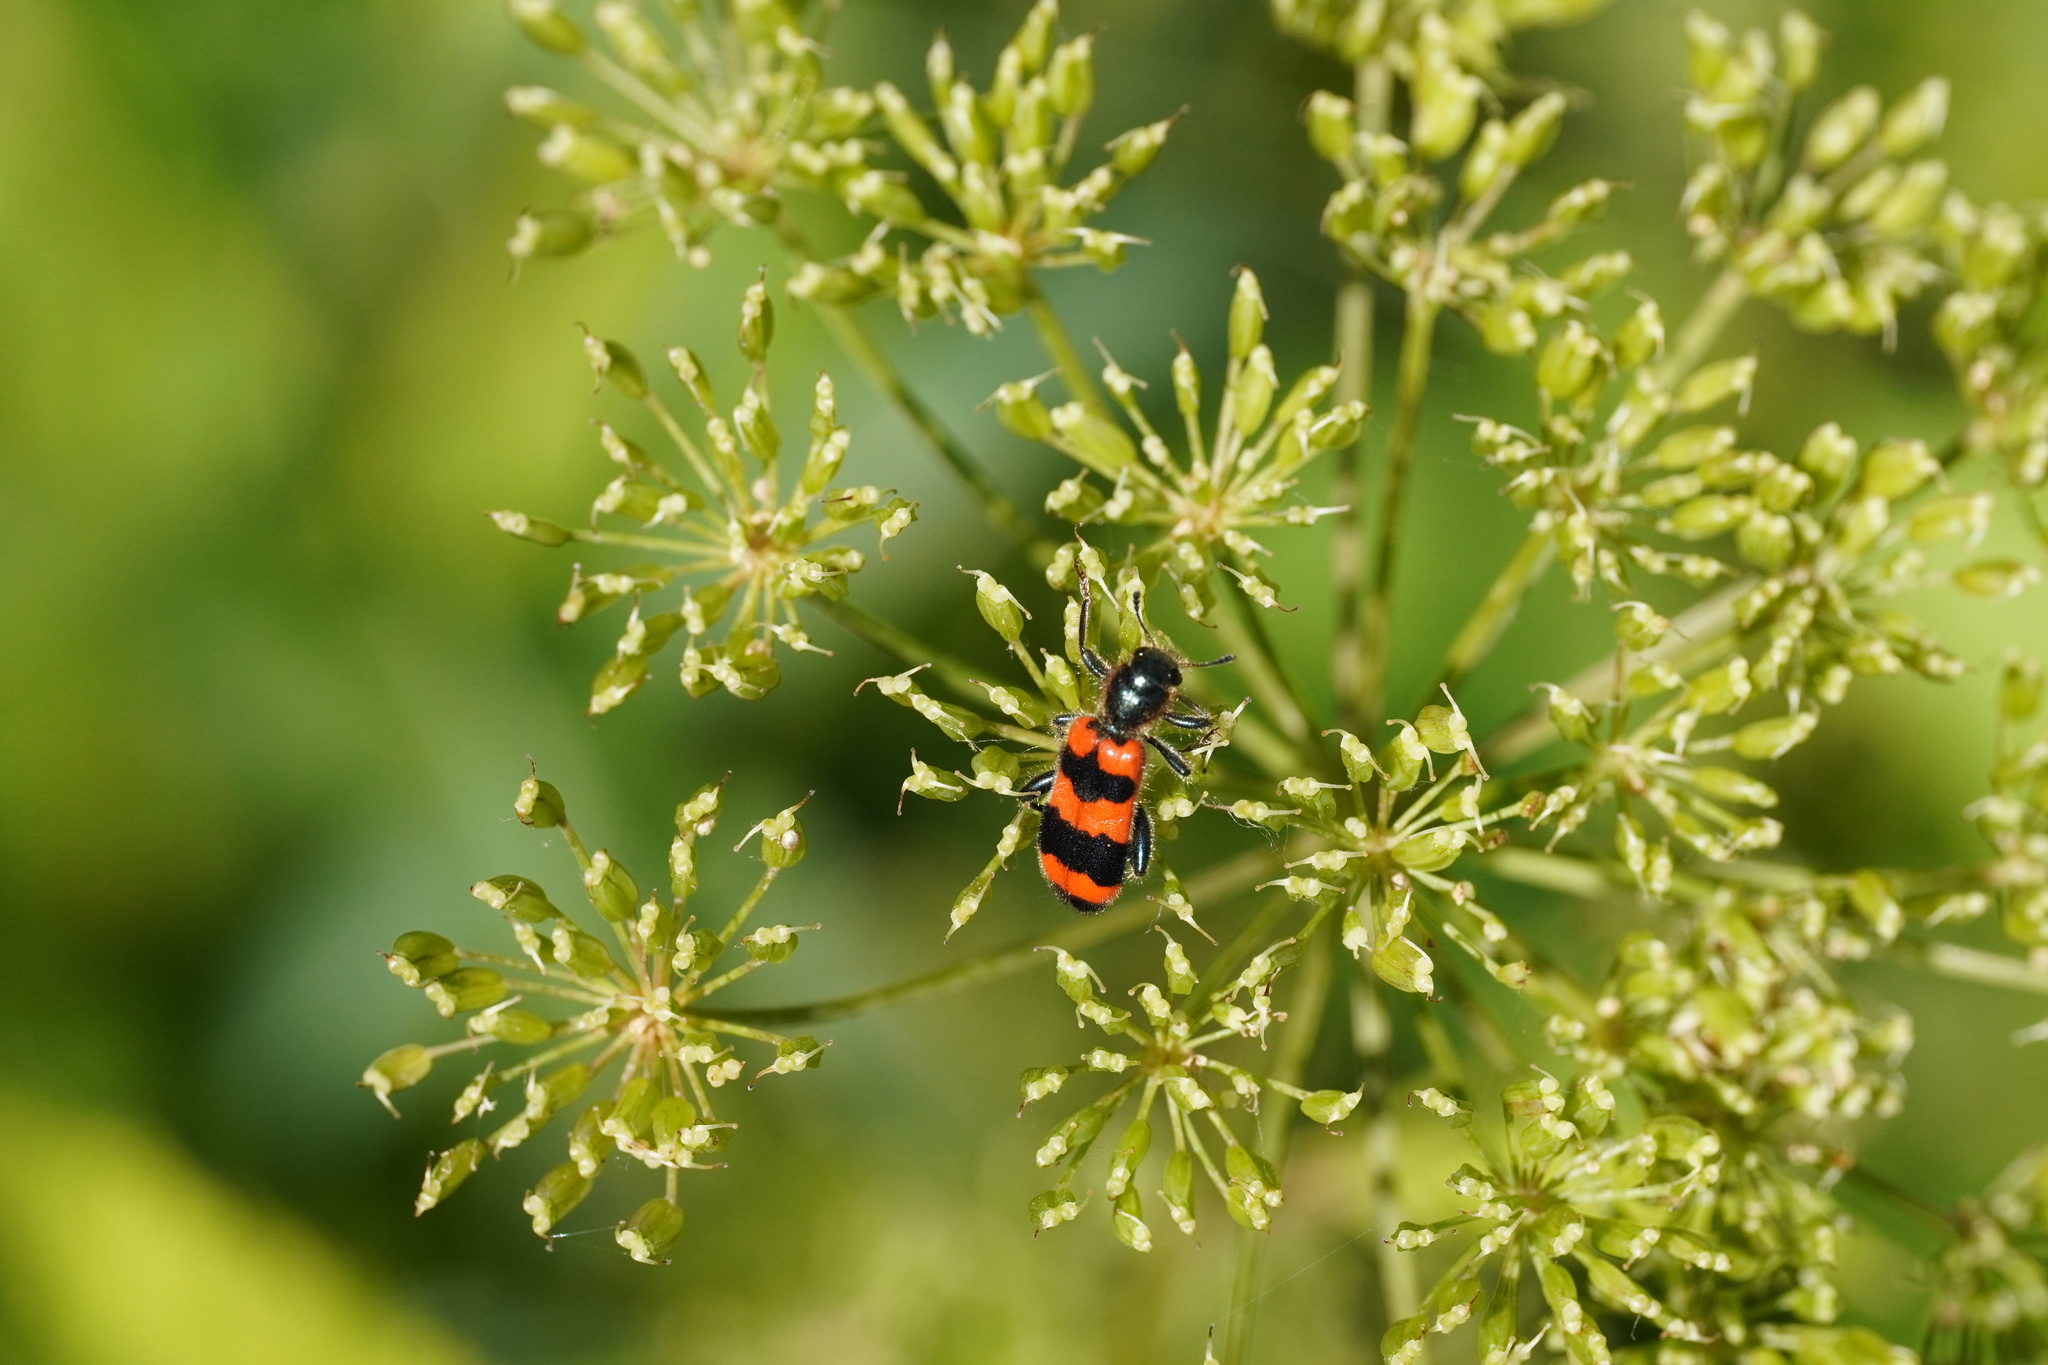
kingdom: Animalia
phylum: Arthropoda
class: Insecta
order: Coleoptera
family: Cleridae
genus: Trichodes
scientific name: Trichodes apiarius
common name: Bee-eating beetle
